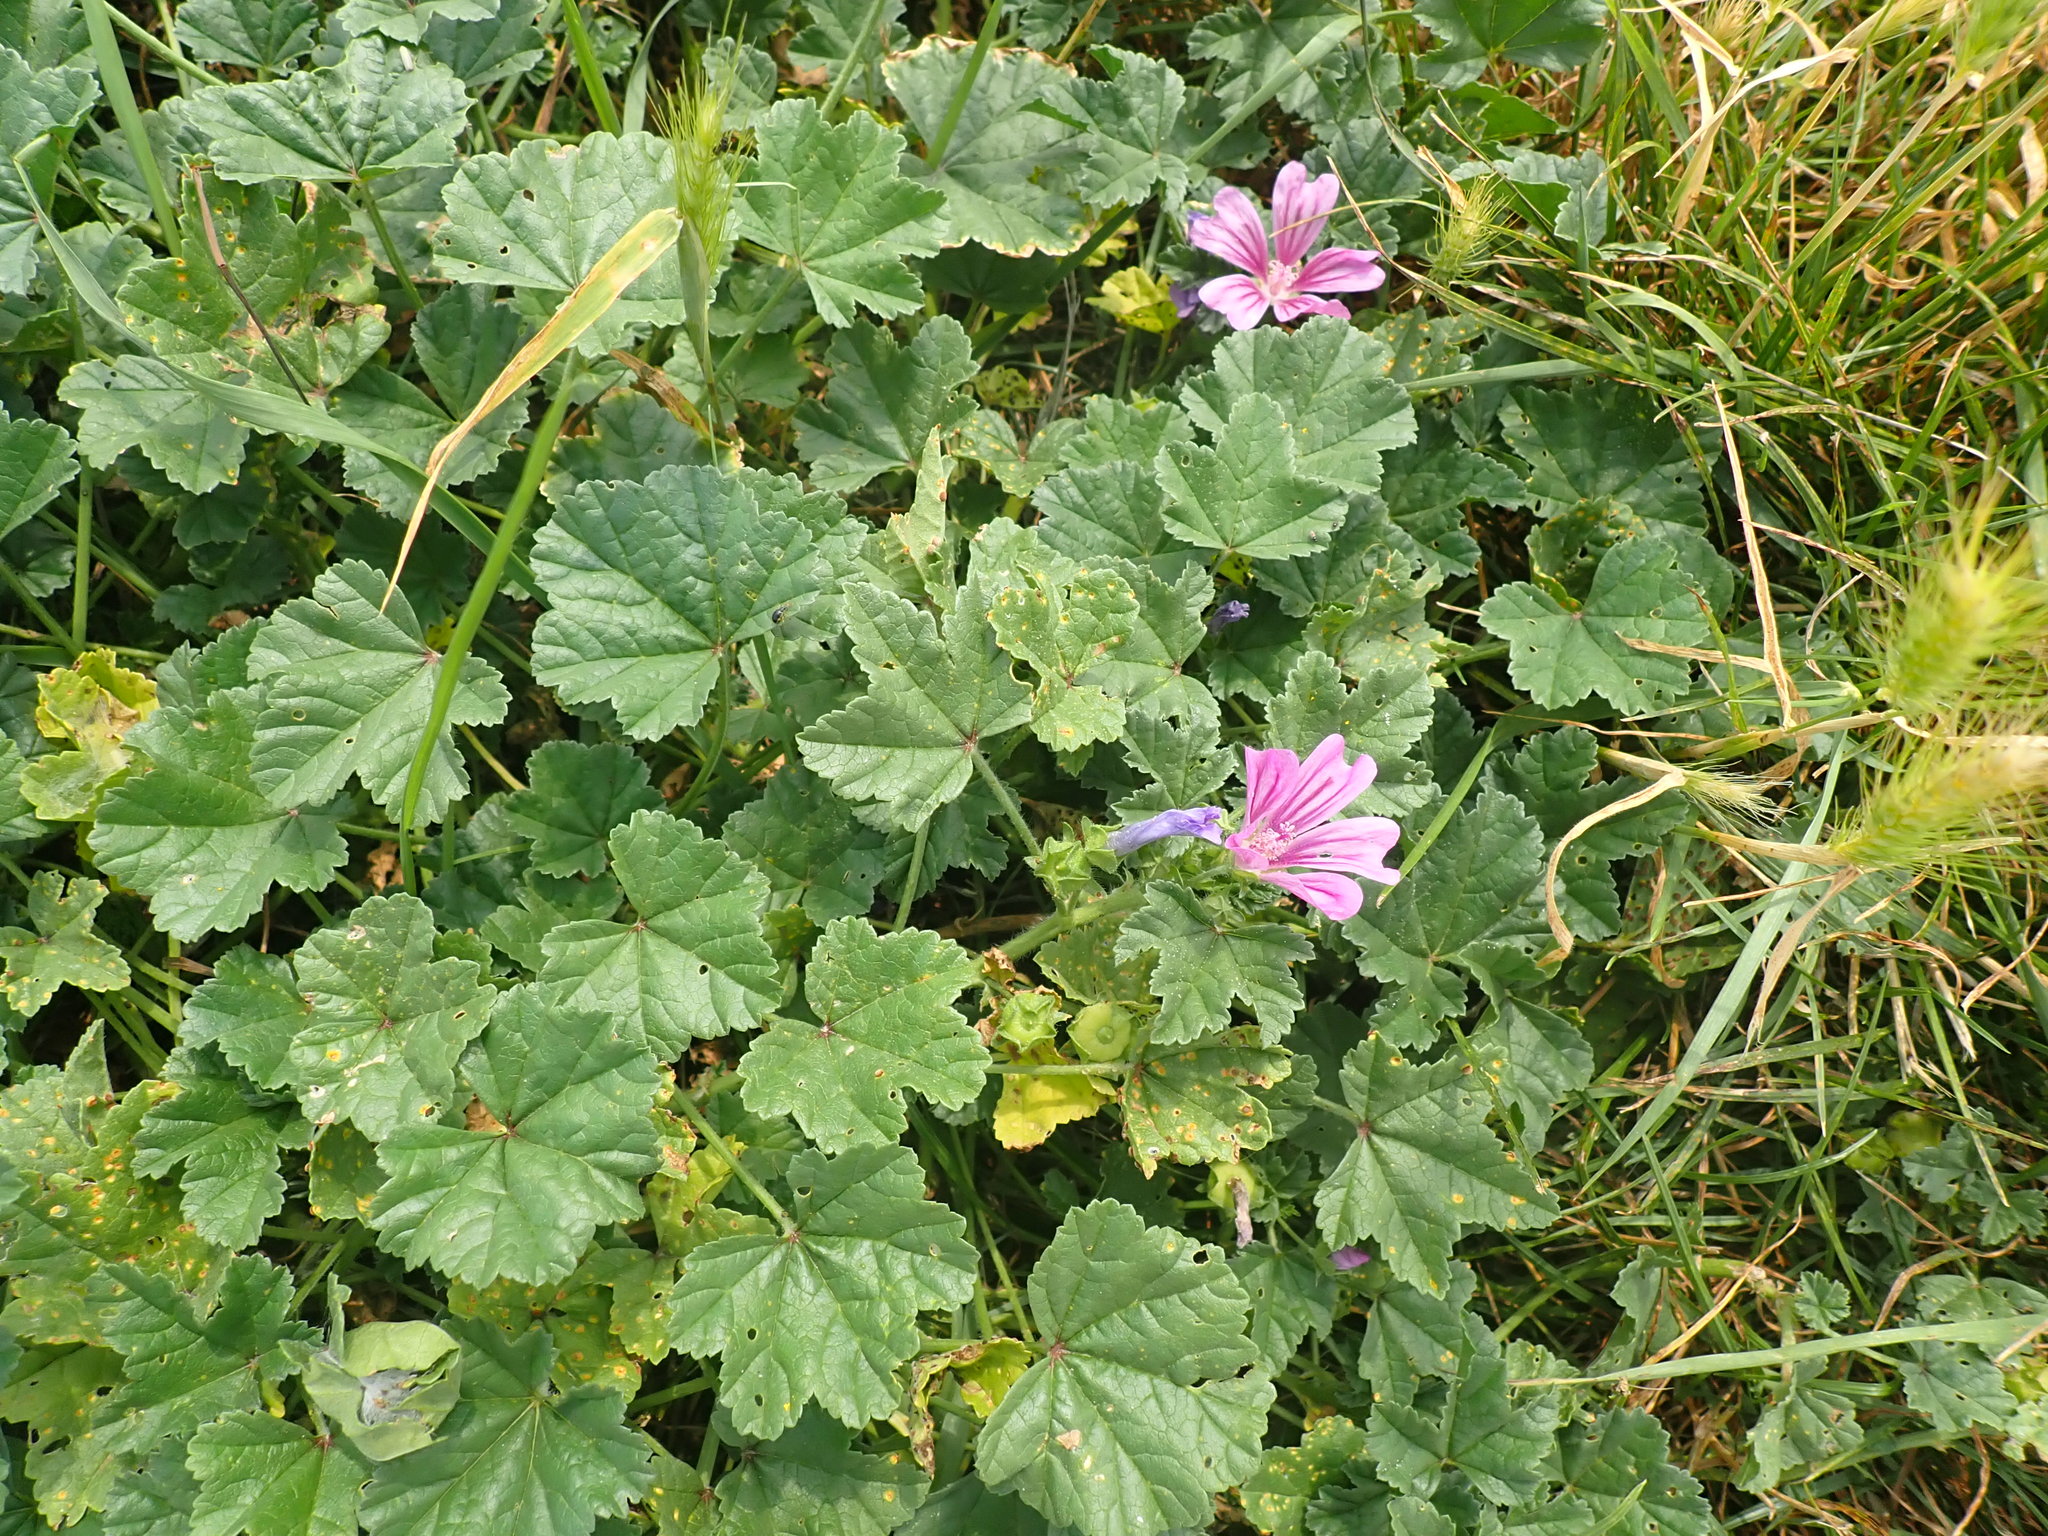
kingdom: Plantae
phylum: Tracheophyta
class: Magnoliopsida
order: Malvales
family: Malvaceae
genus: Malva
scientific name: Malva sylvestris
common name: Common mallow
